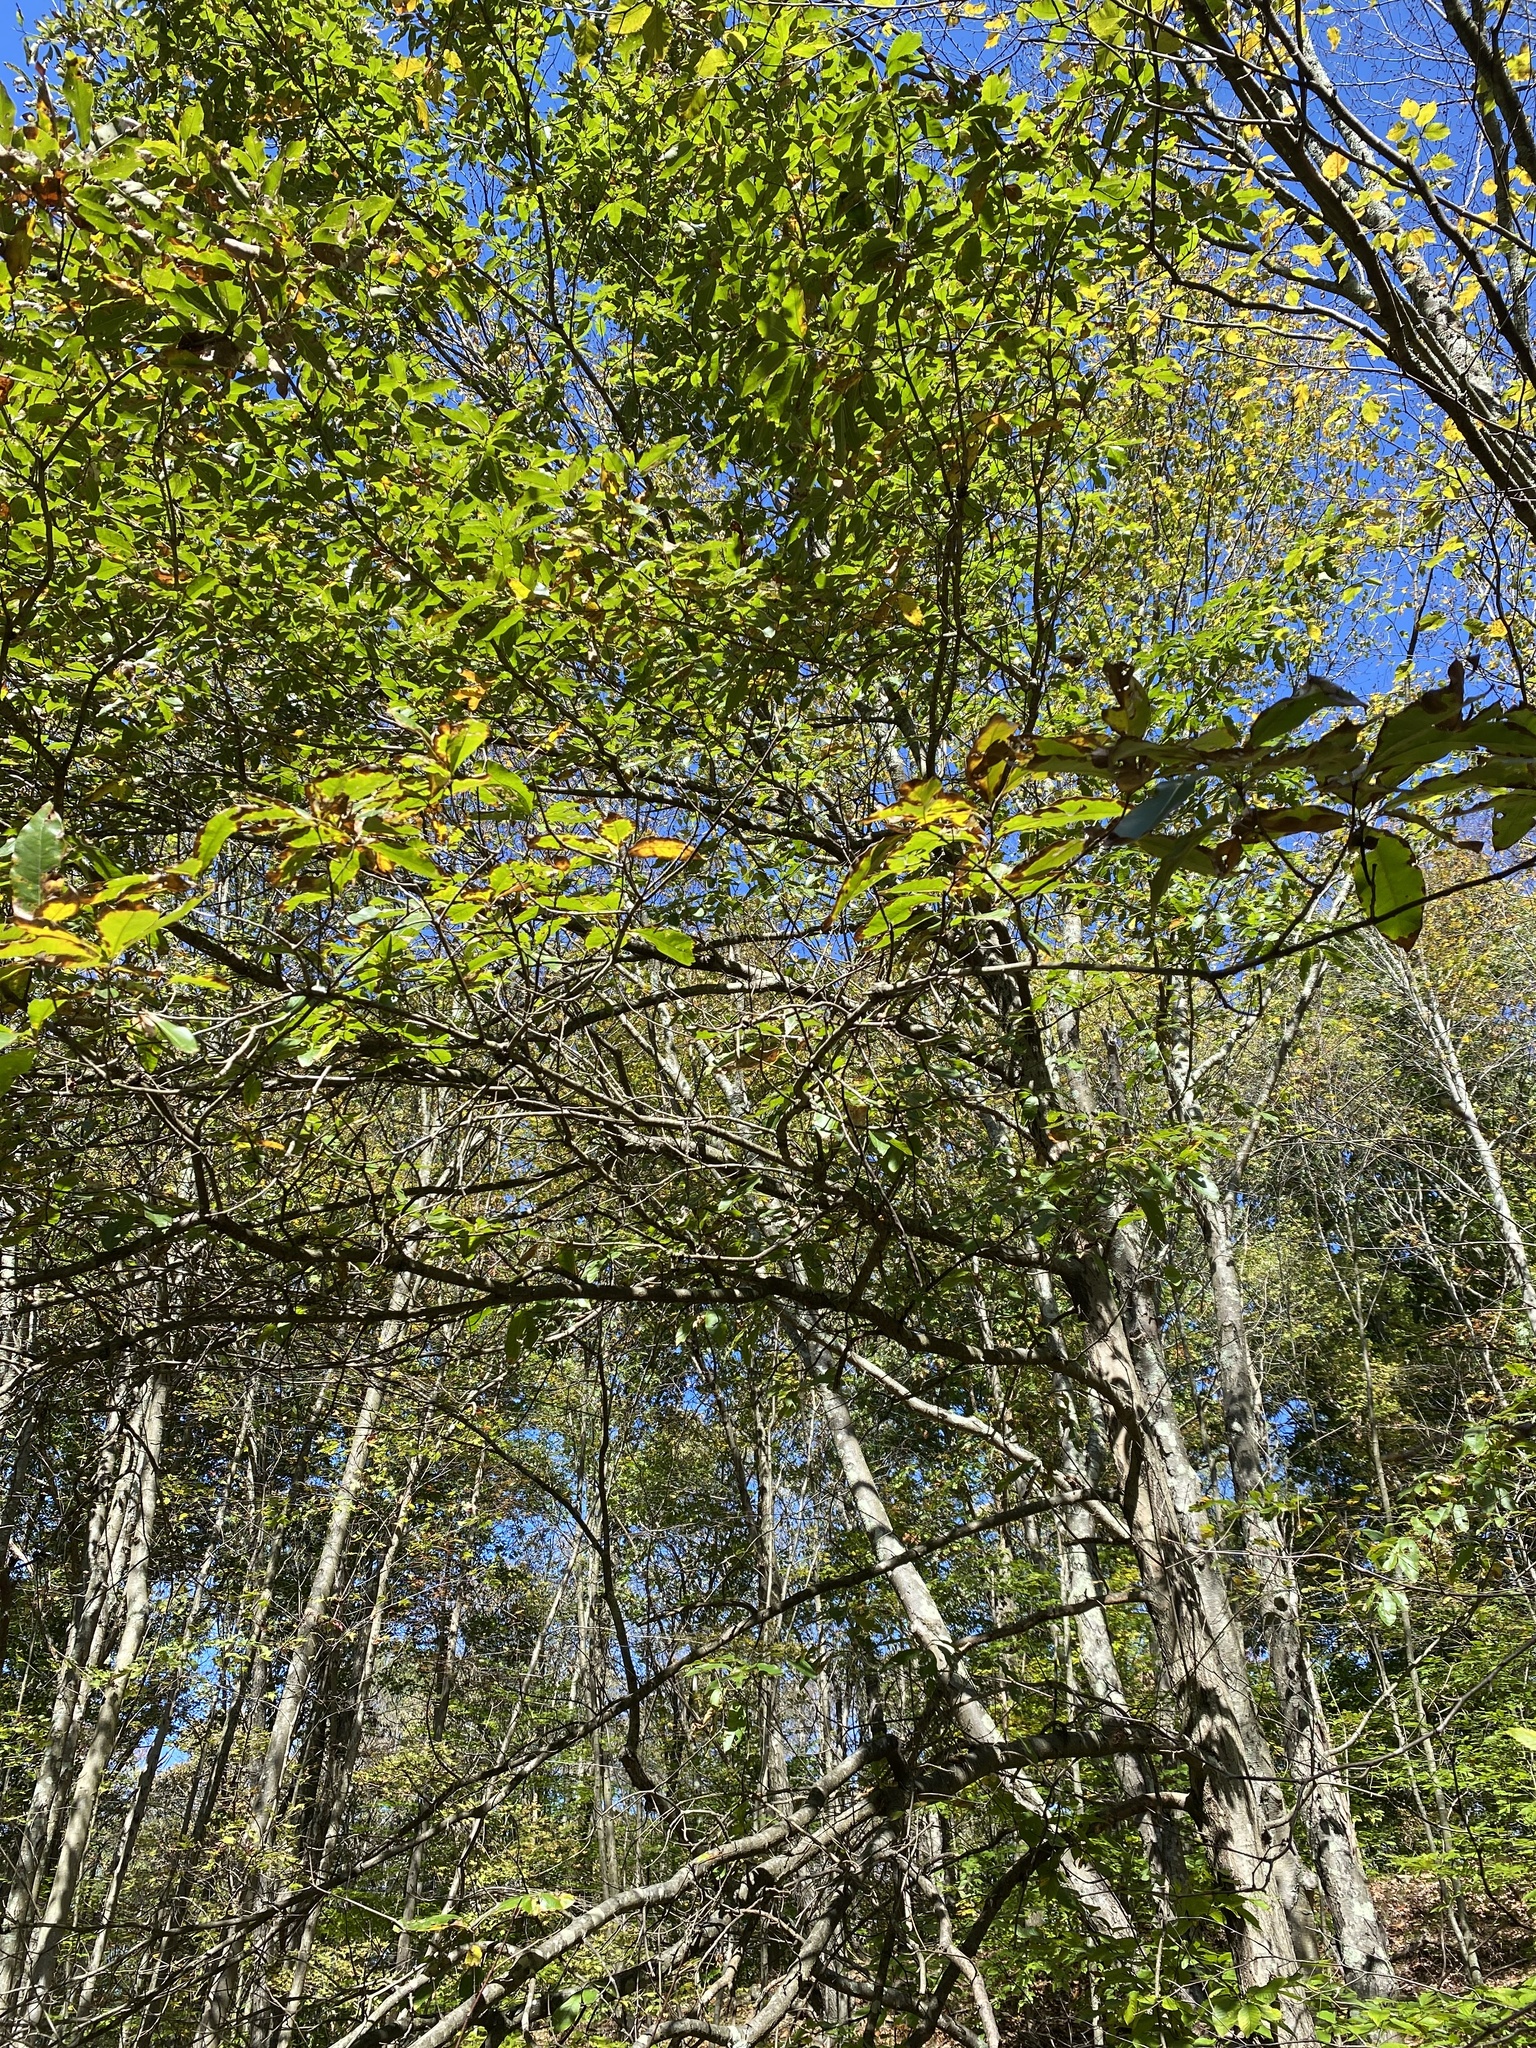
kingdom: Plantae
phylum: Tracheophyta
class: Magnoliopsida
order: Fagales
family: Fagaceae
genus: Quercus
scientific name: Quercus imbricaria
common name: Shingle oak
